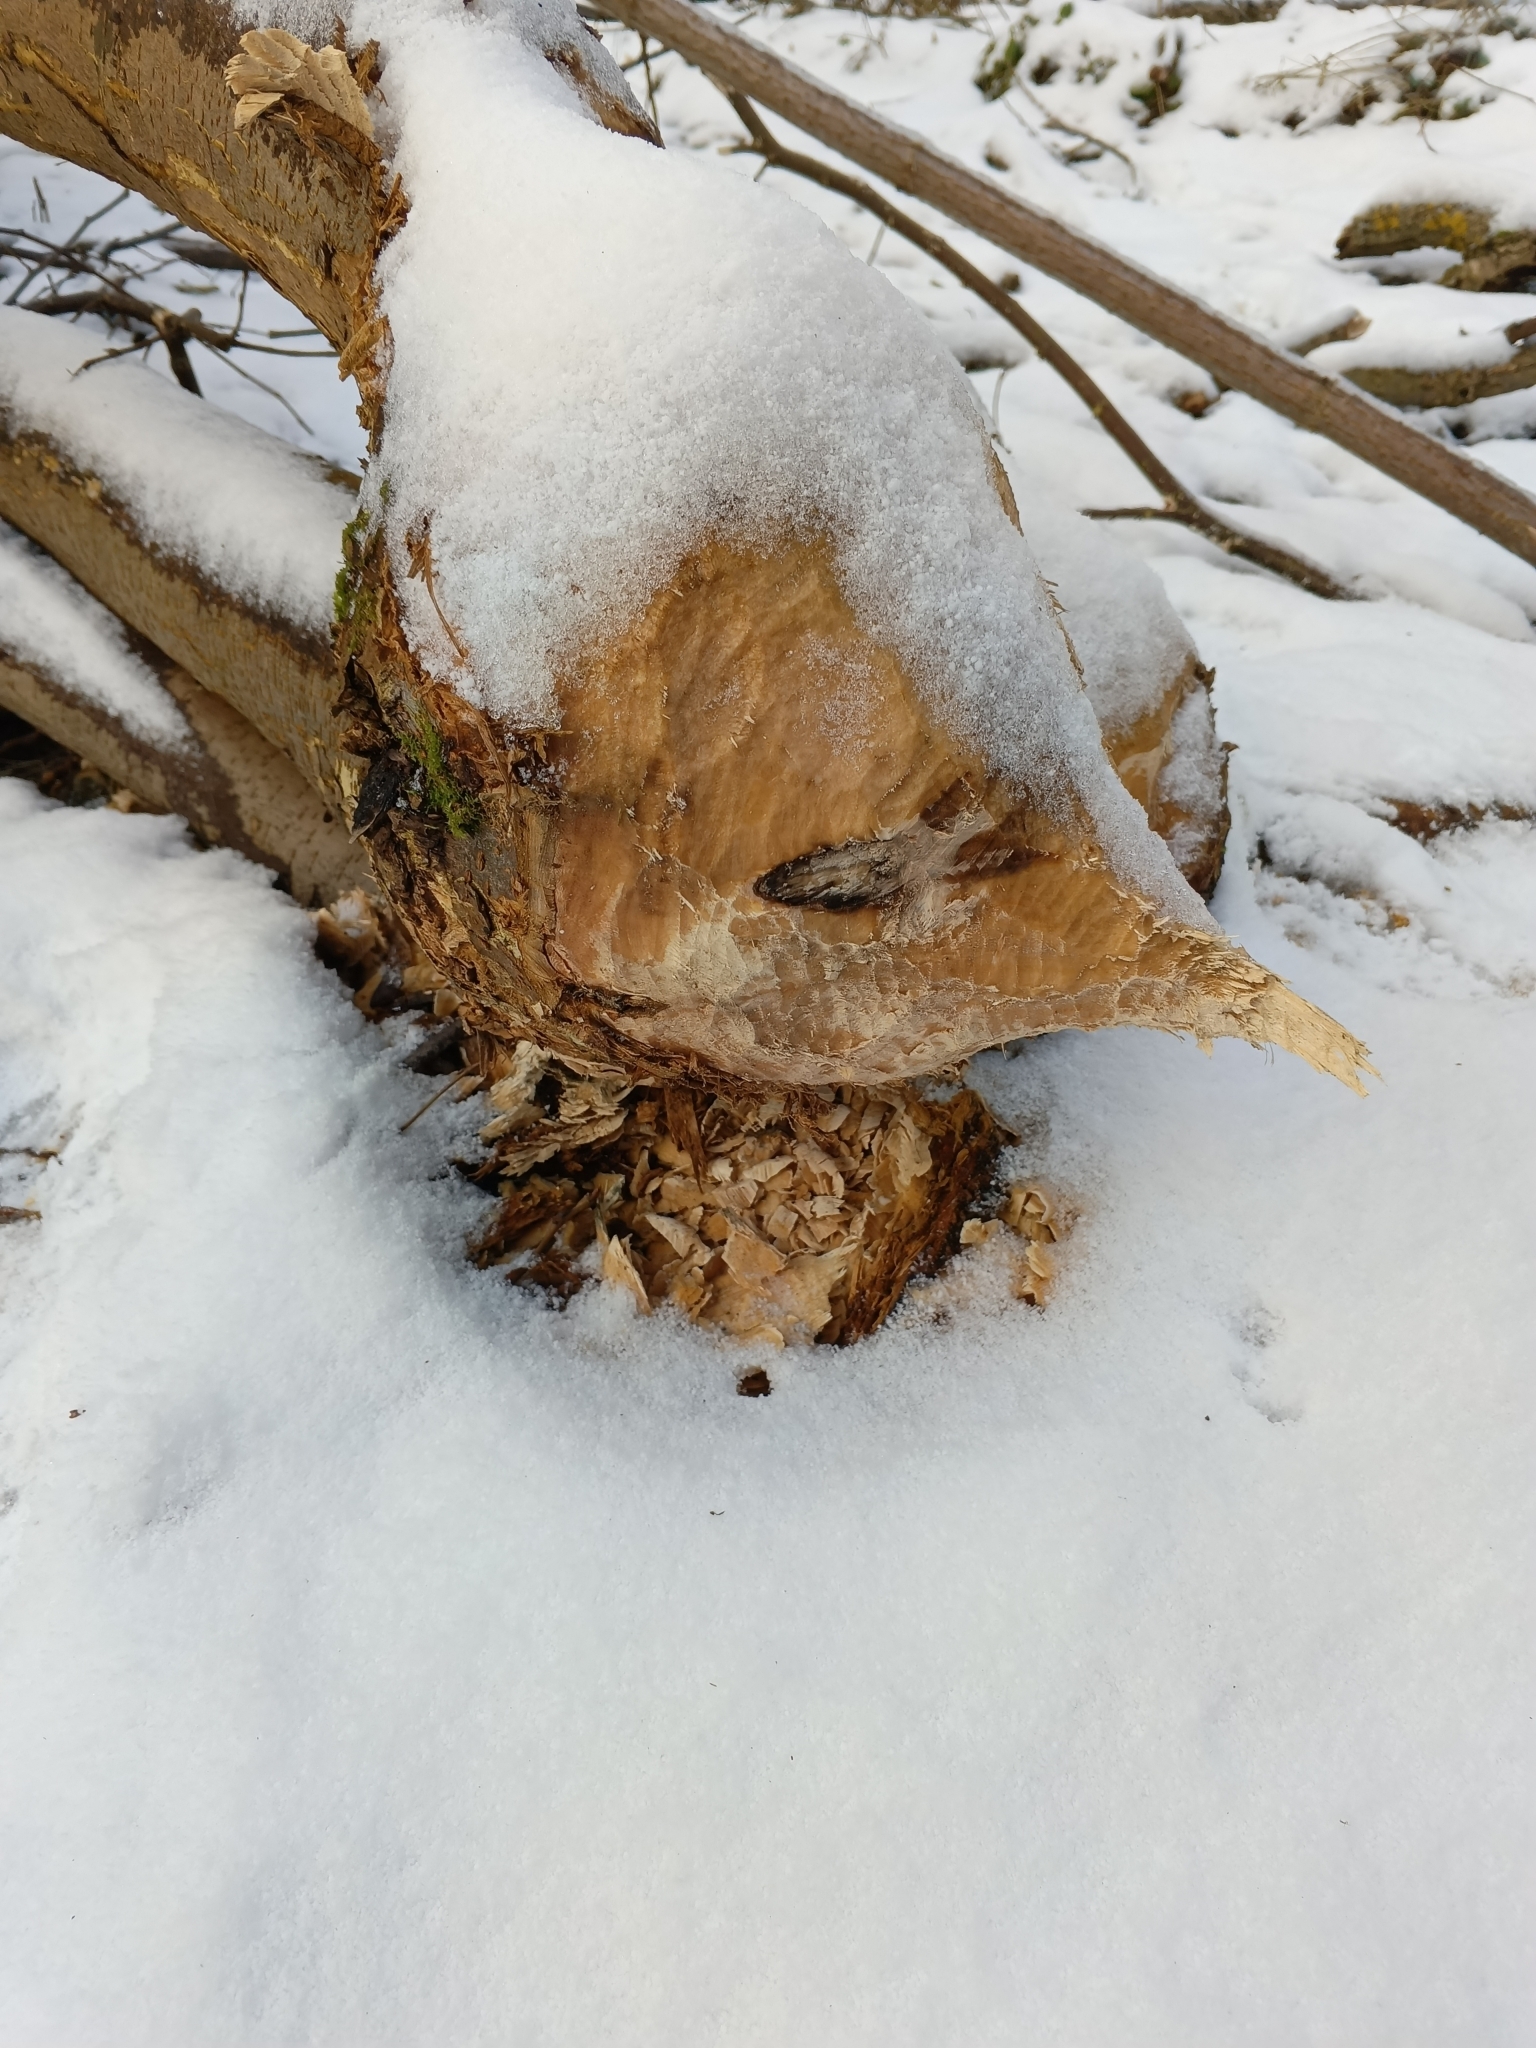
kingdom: Animalia
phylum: Chordata
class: Mammalia
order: Rodentia
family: Castoridae
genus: Castor
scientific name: Castor fiber
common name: Eurasian beaver
